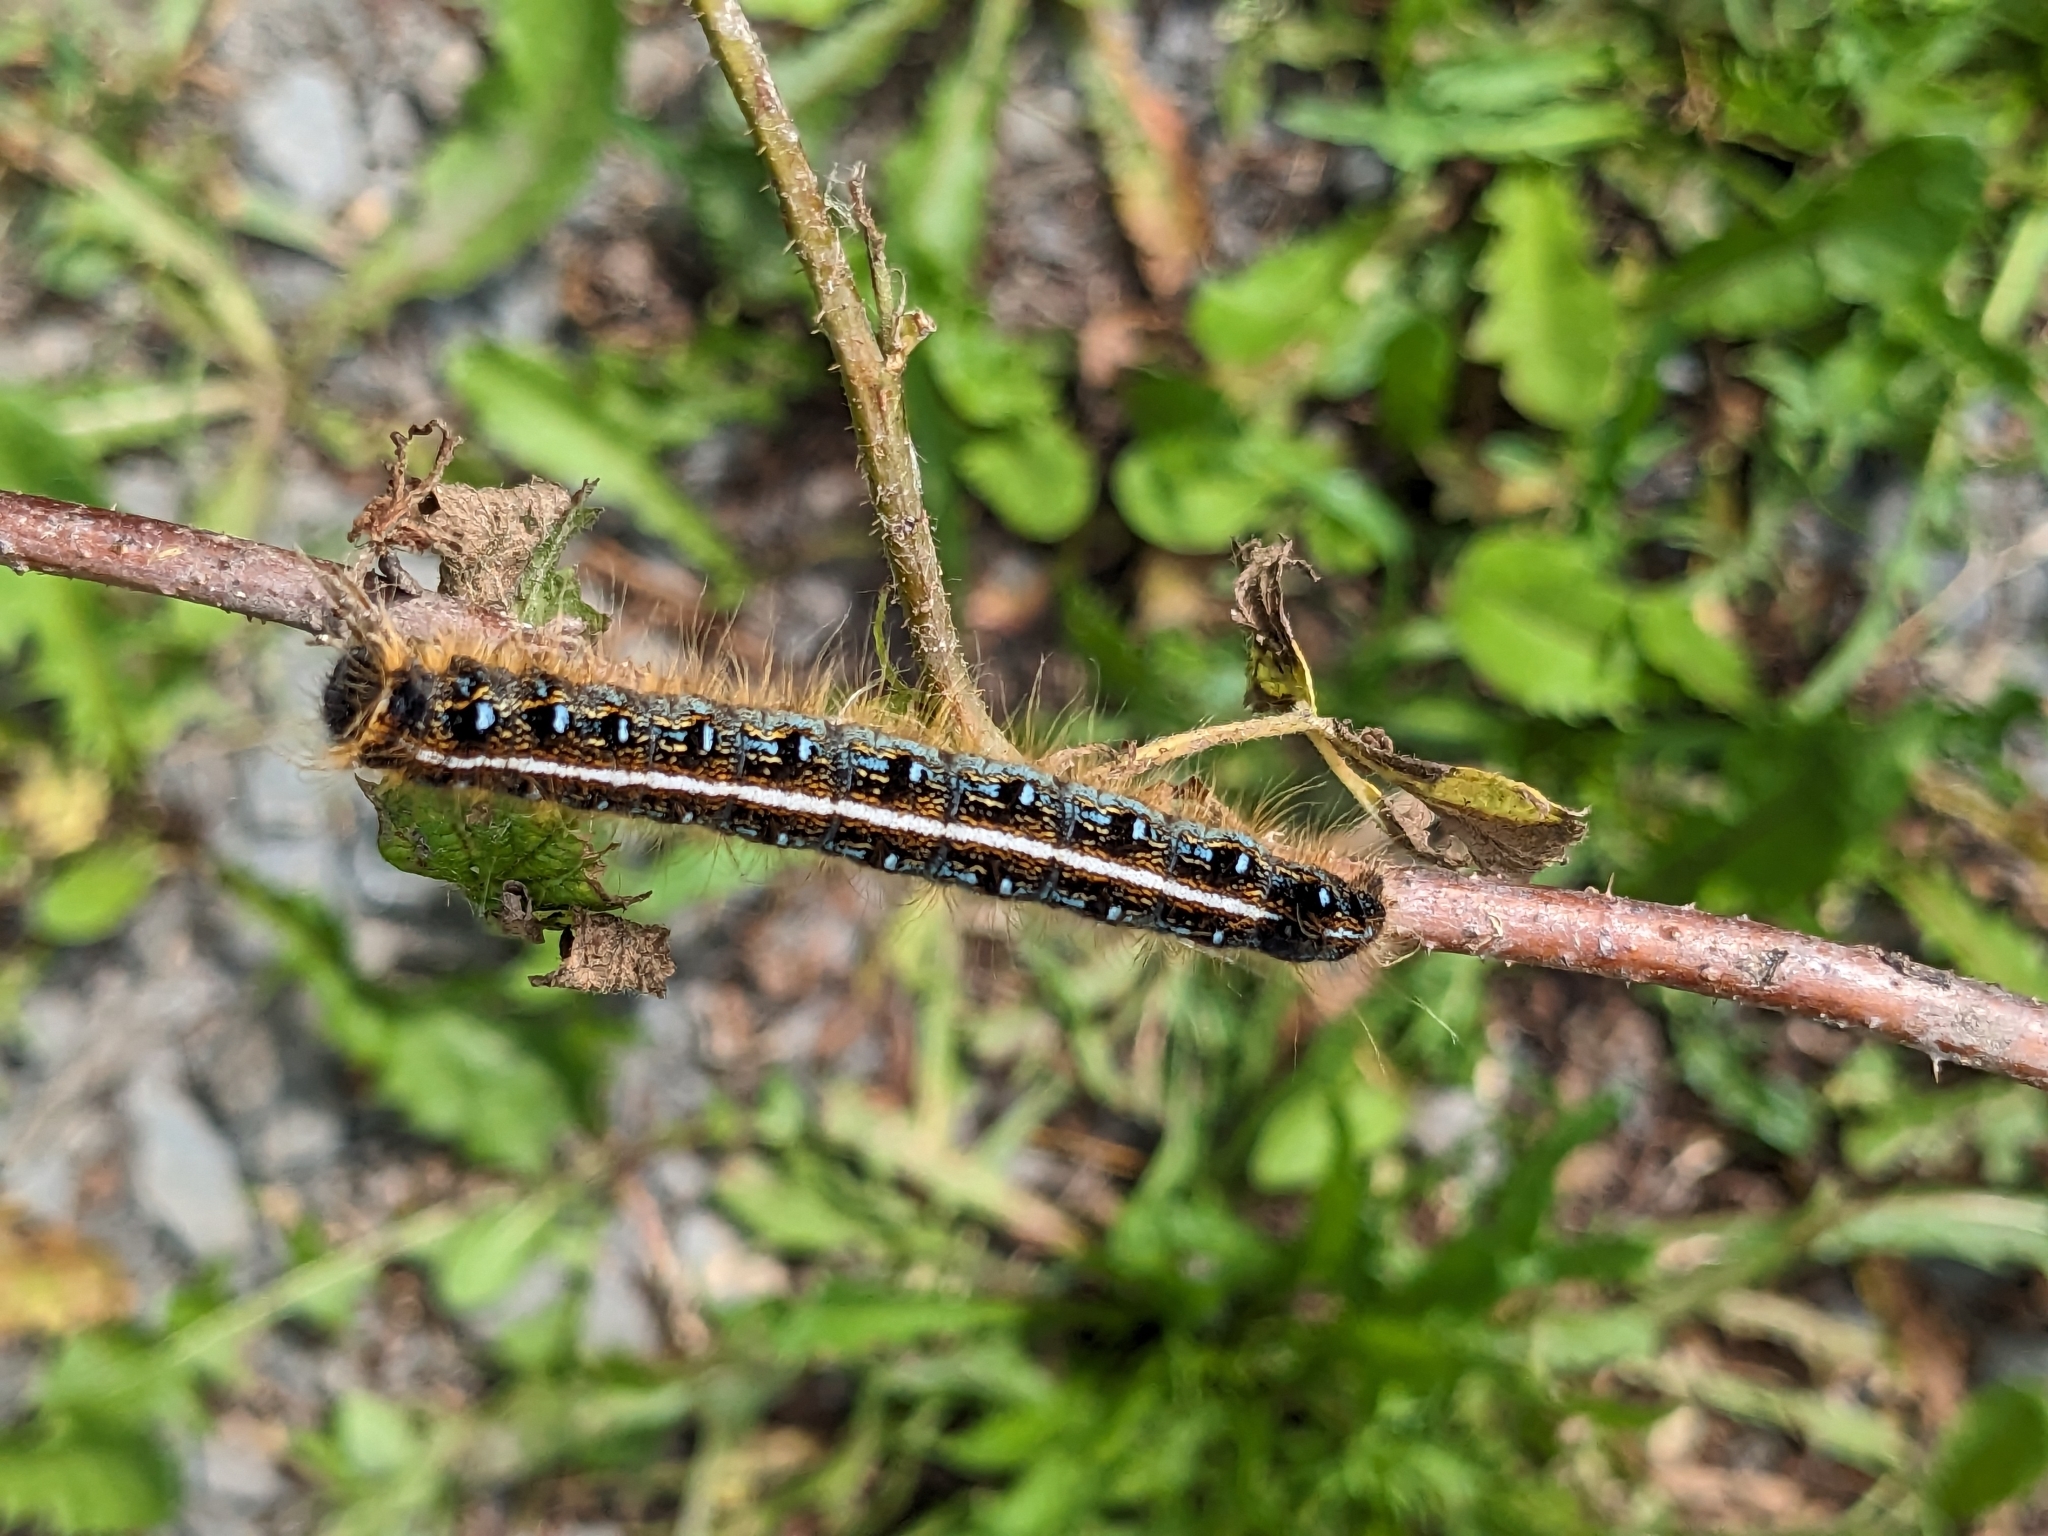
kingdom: Animalia
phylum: Arthropoda
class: Insecta
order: Lepidoptera
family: Lasiocampidae
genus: Malacosoma
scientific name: Malacosoma americana
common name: Eastern tent caterpillar moth
